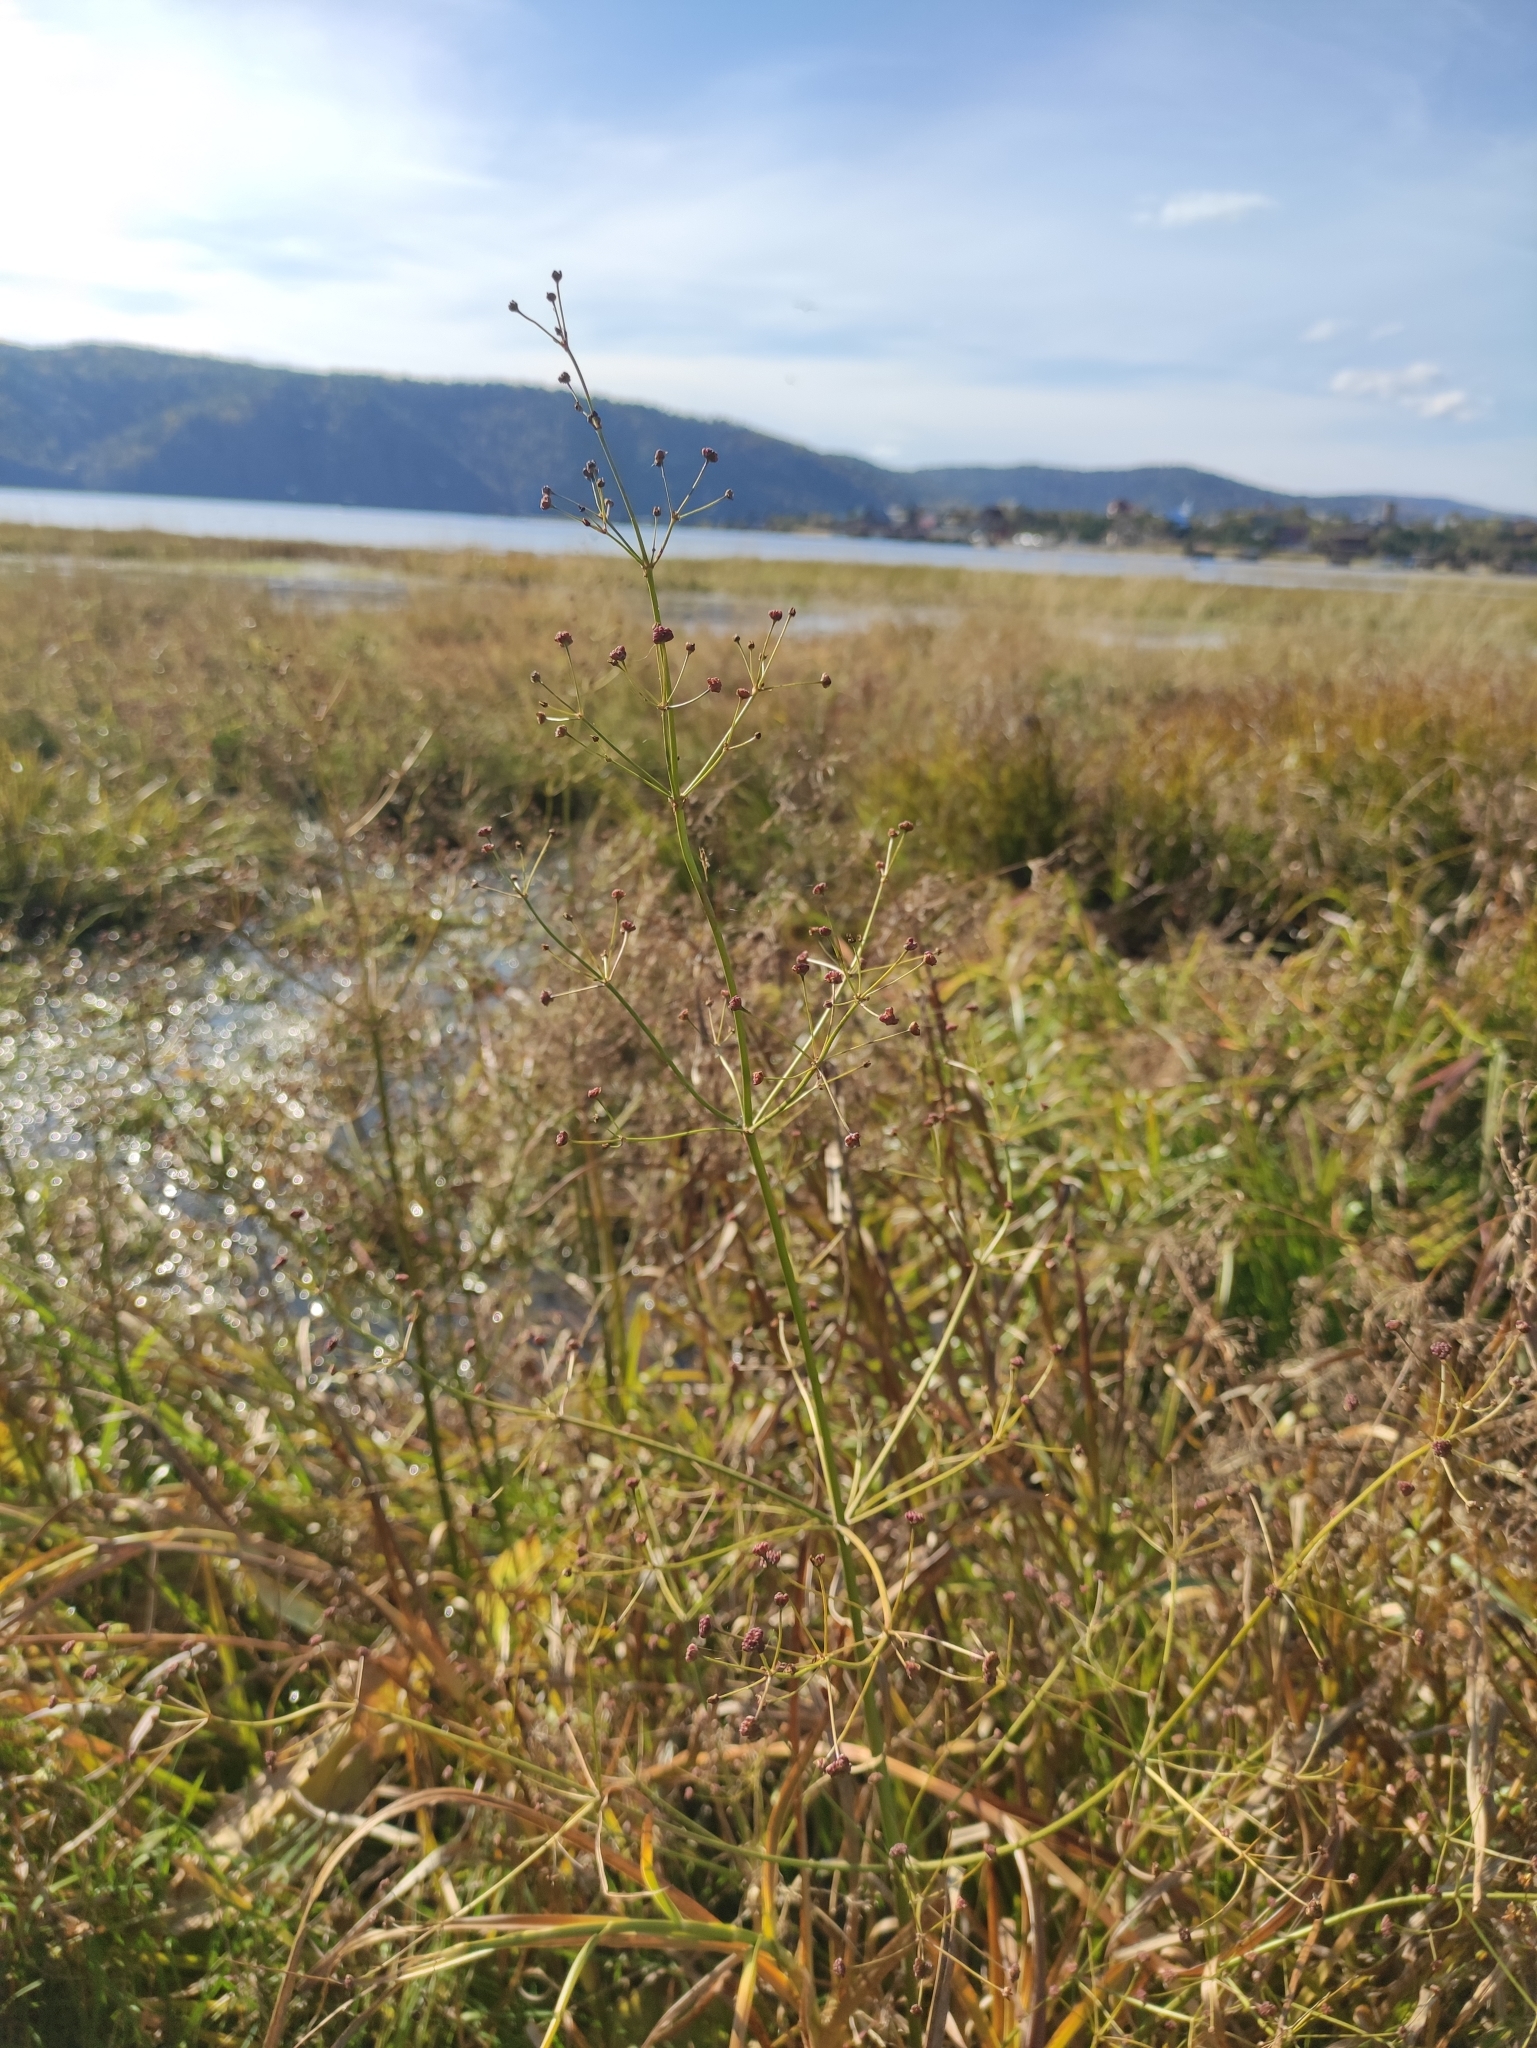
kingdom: Plantae
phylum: Tracheophyta
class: Liliopsida
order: Alismatales
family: Alismataceae
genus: Alisma
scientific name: Alisma plantago-aquatica
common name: Water-plantain
